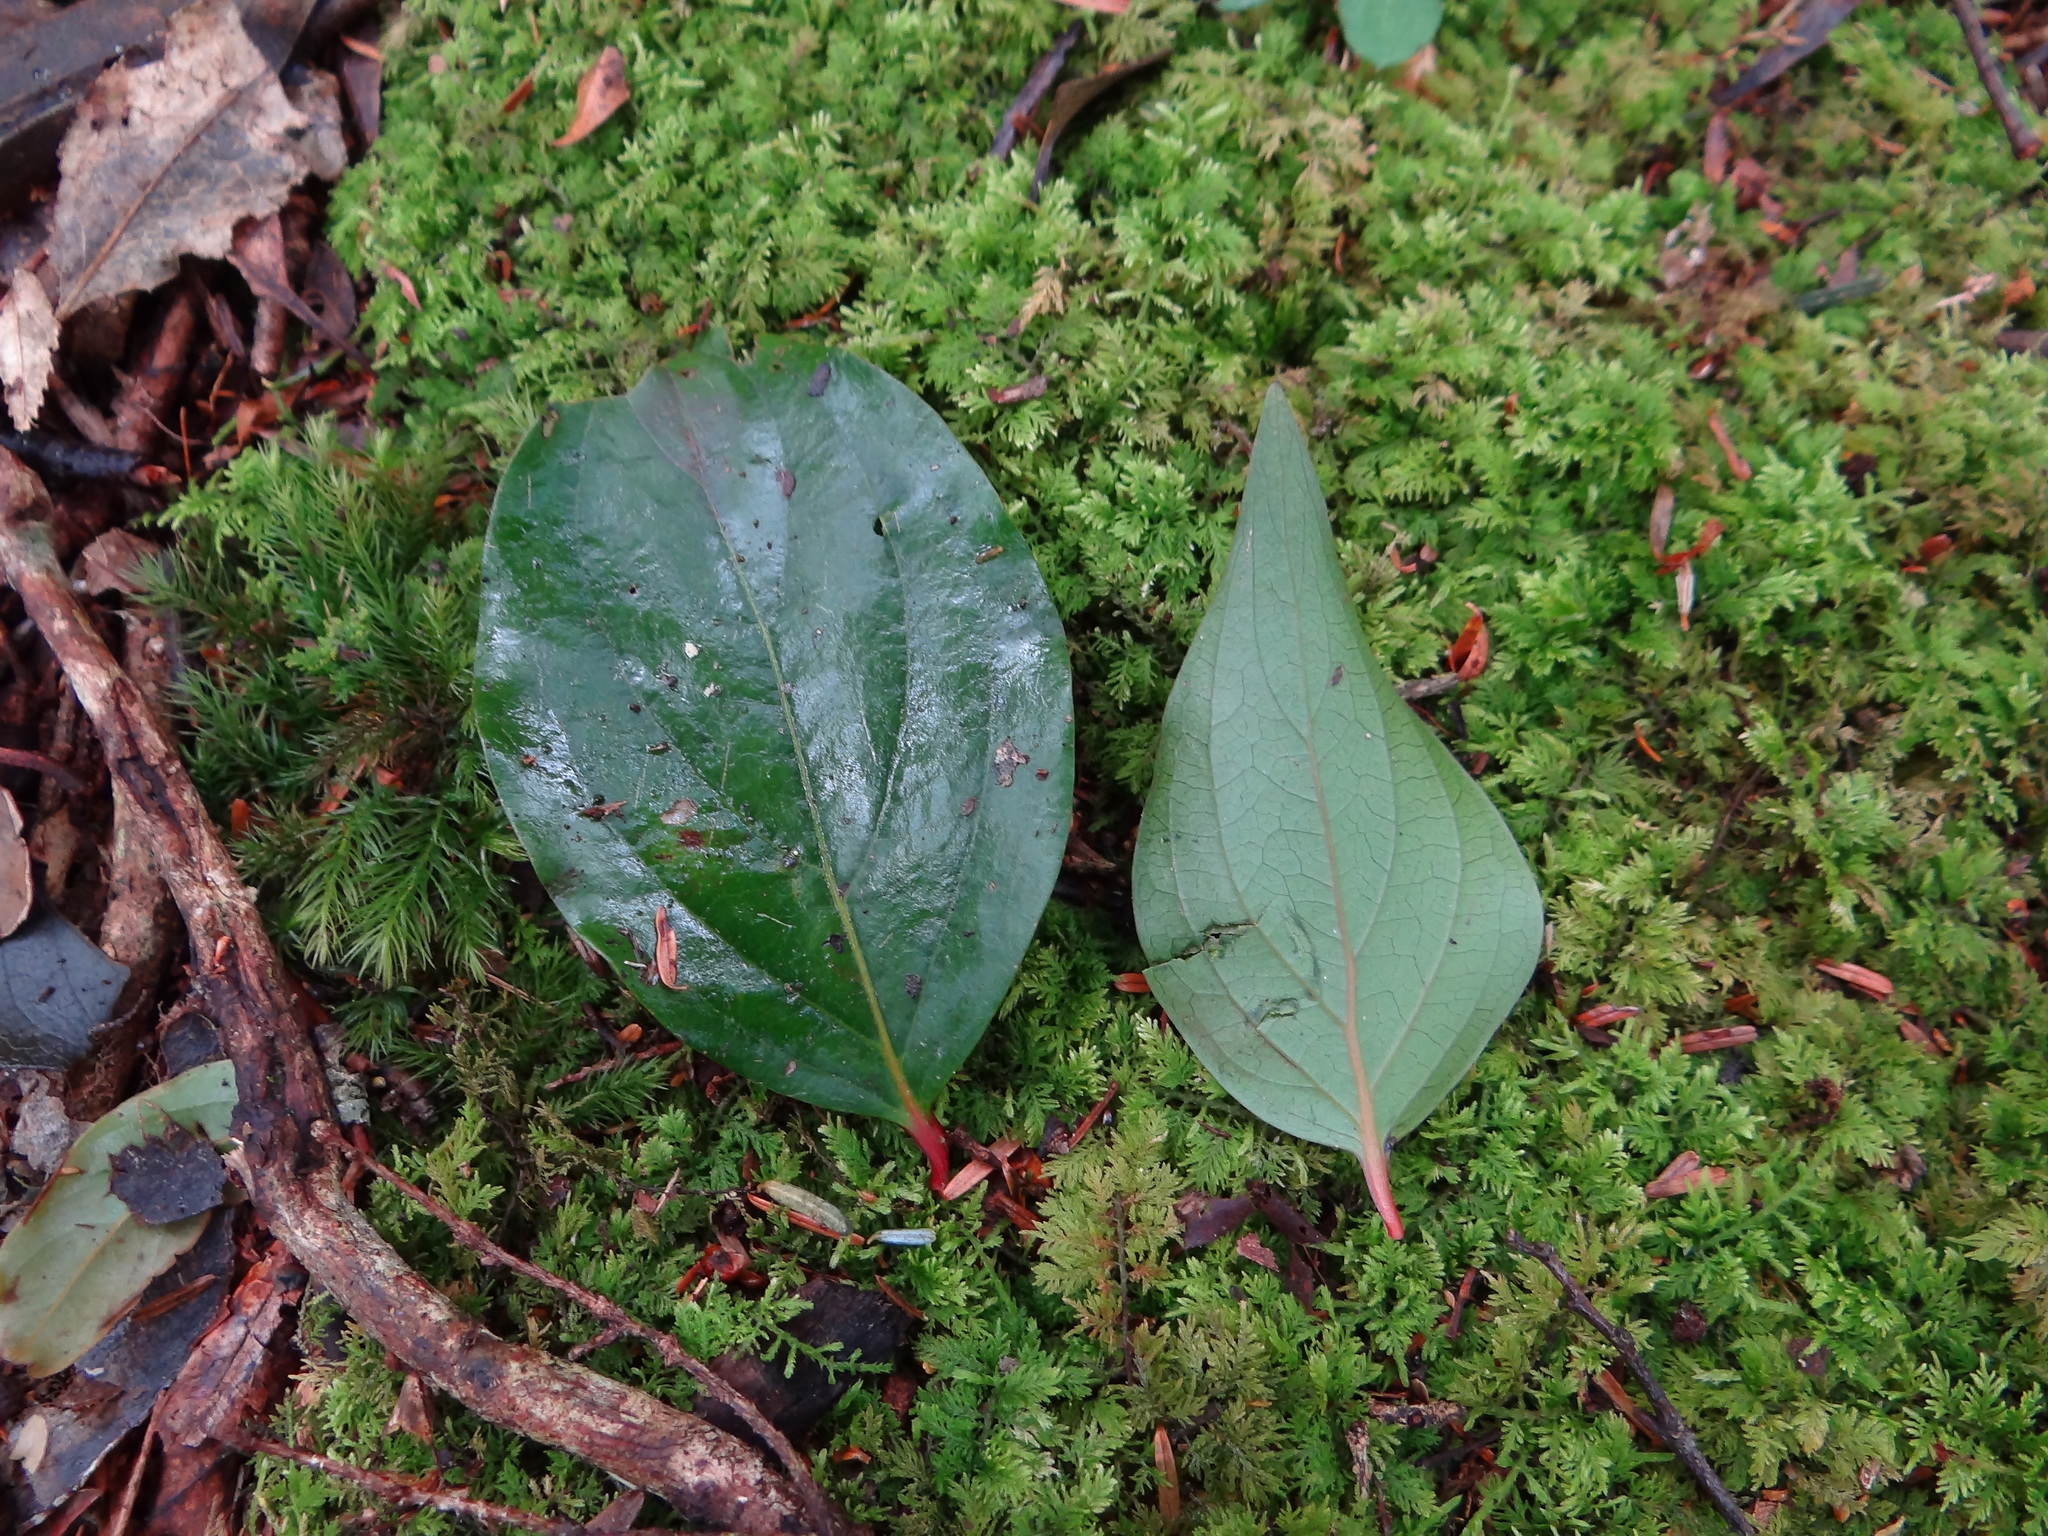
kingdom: Plantae
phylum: Tracheophyta
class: Magnoliopsida
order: Santalales
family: Schoepfiaceae
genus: Schoepfia
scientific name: Schoepfia jasminodora
